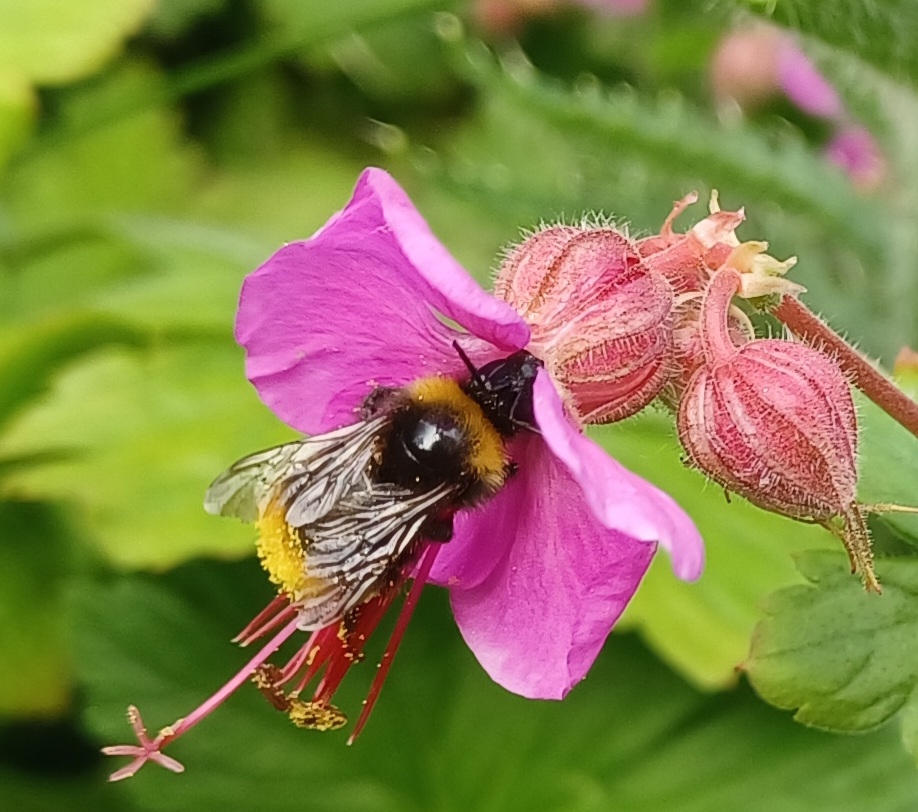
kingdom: Animalia
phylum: Arthropoda
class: Insecta
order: Hymenoptera
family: Apidae
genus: Bombus
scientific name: Bombus pratorum
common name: Early humble-bee
